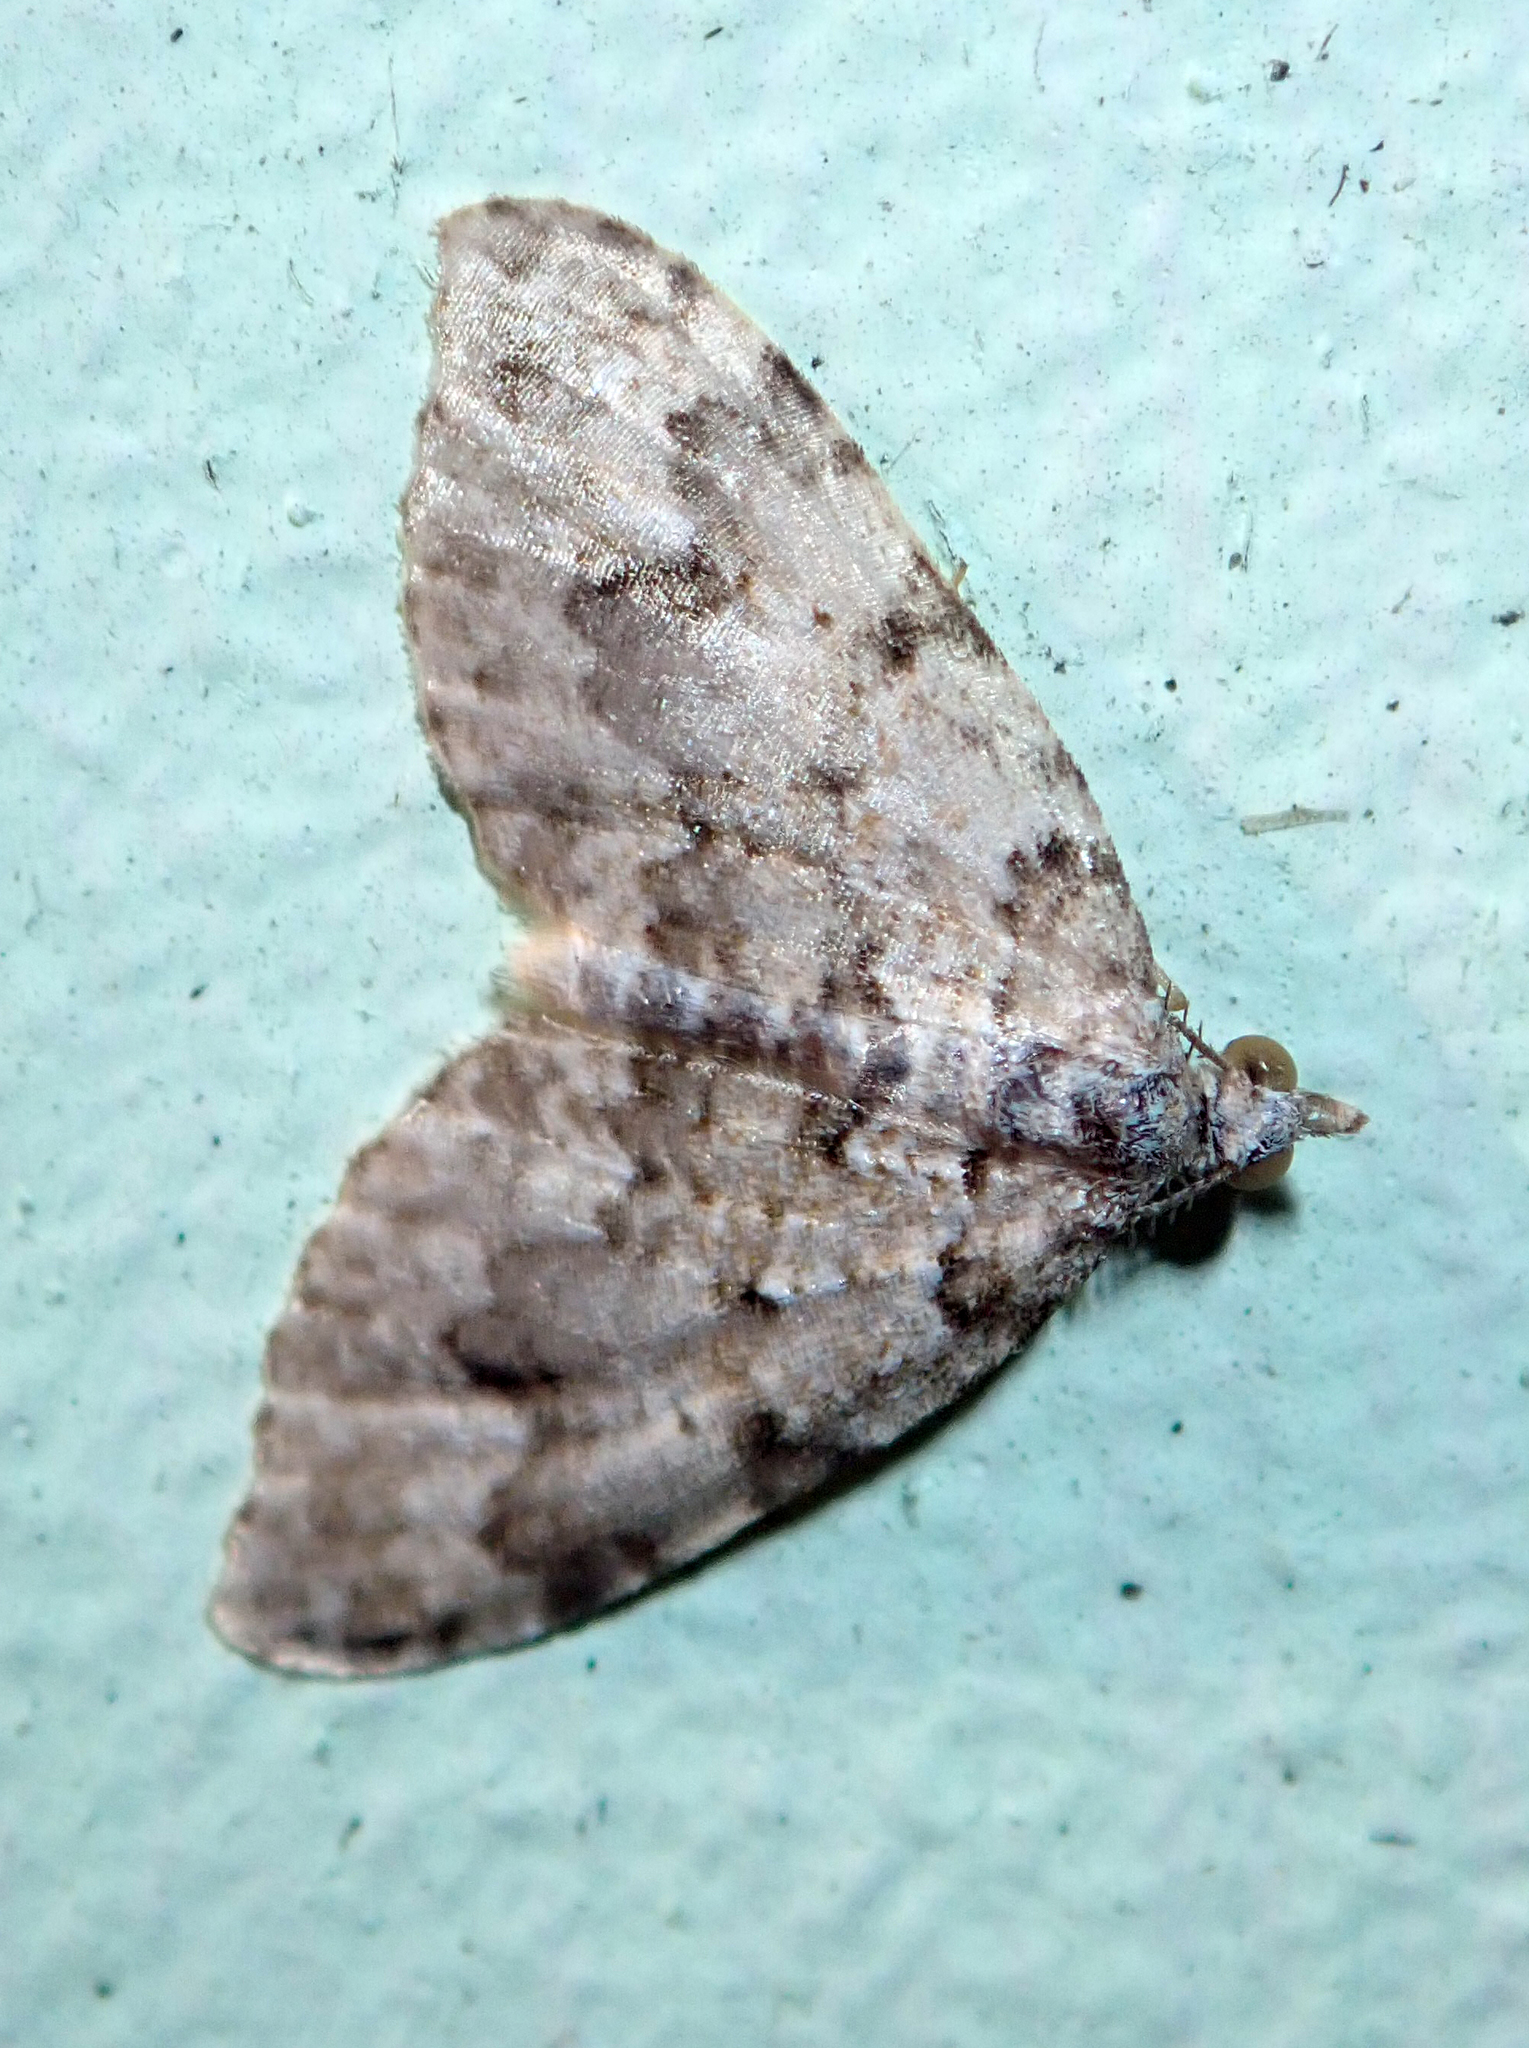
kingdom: Animalia
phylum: Arthropoda
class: Insecta
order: Lepidoptera
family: Geometridae
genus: Helastia
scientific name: Helastia farinata
